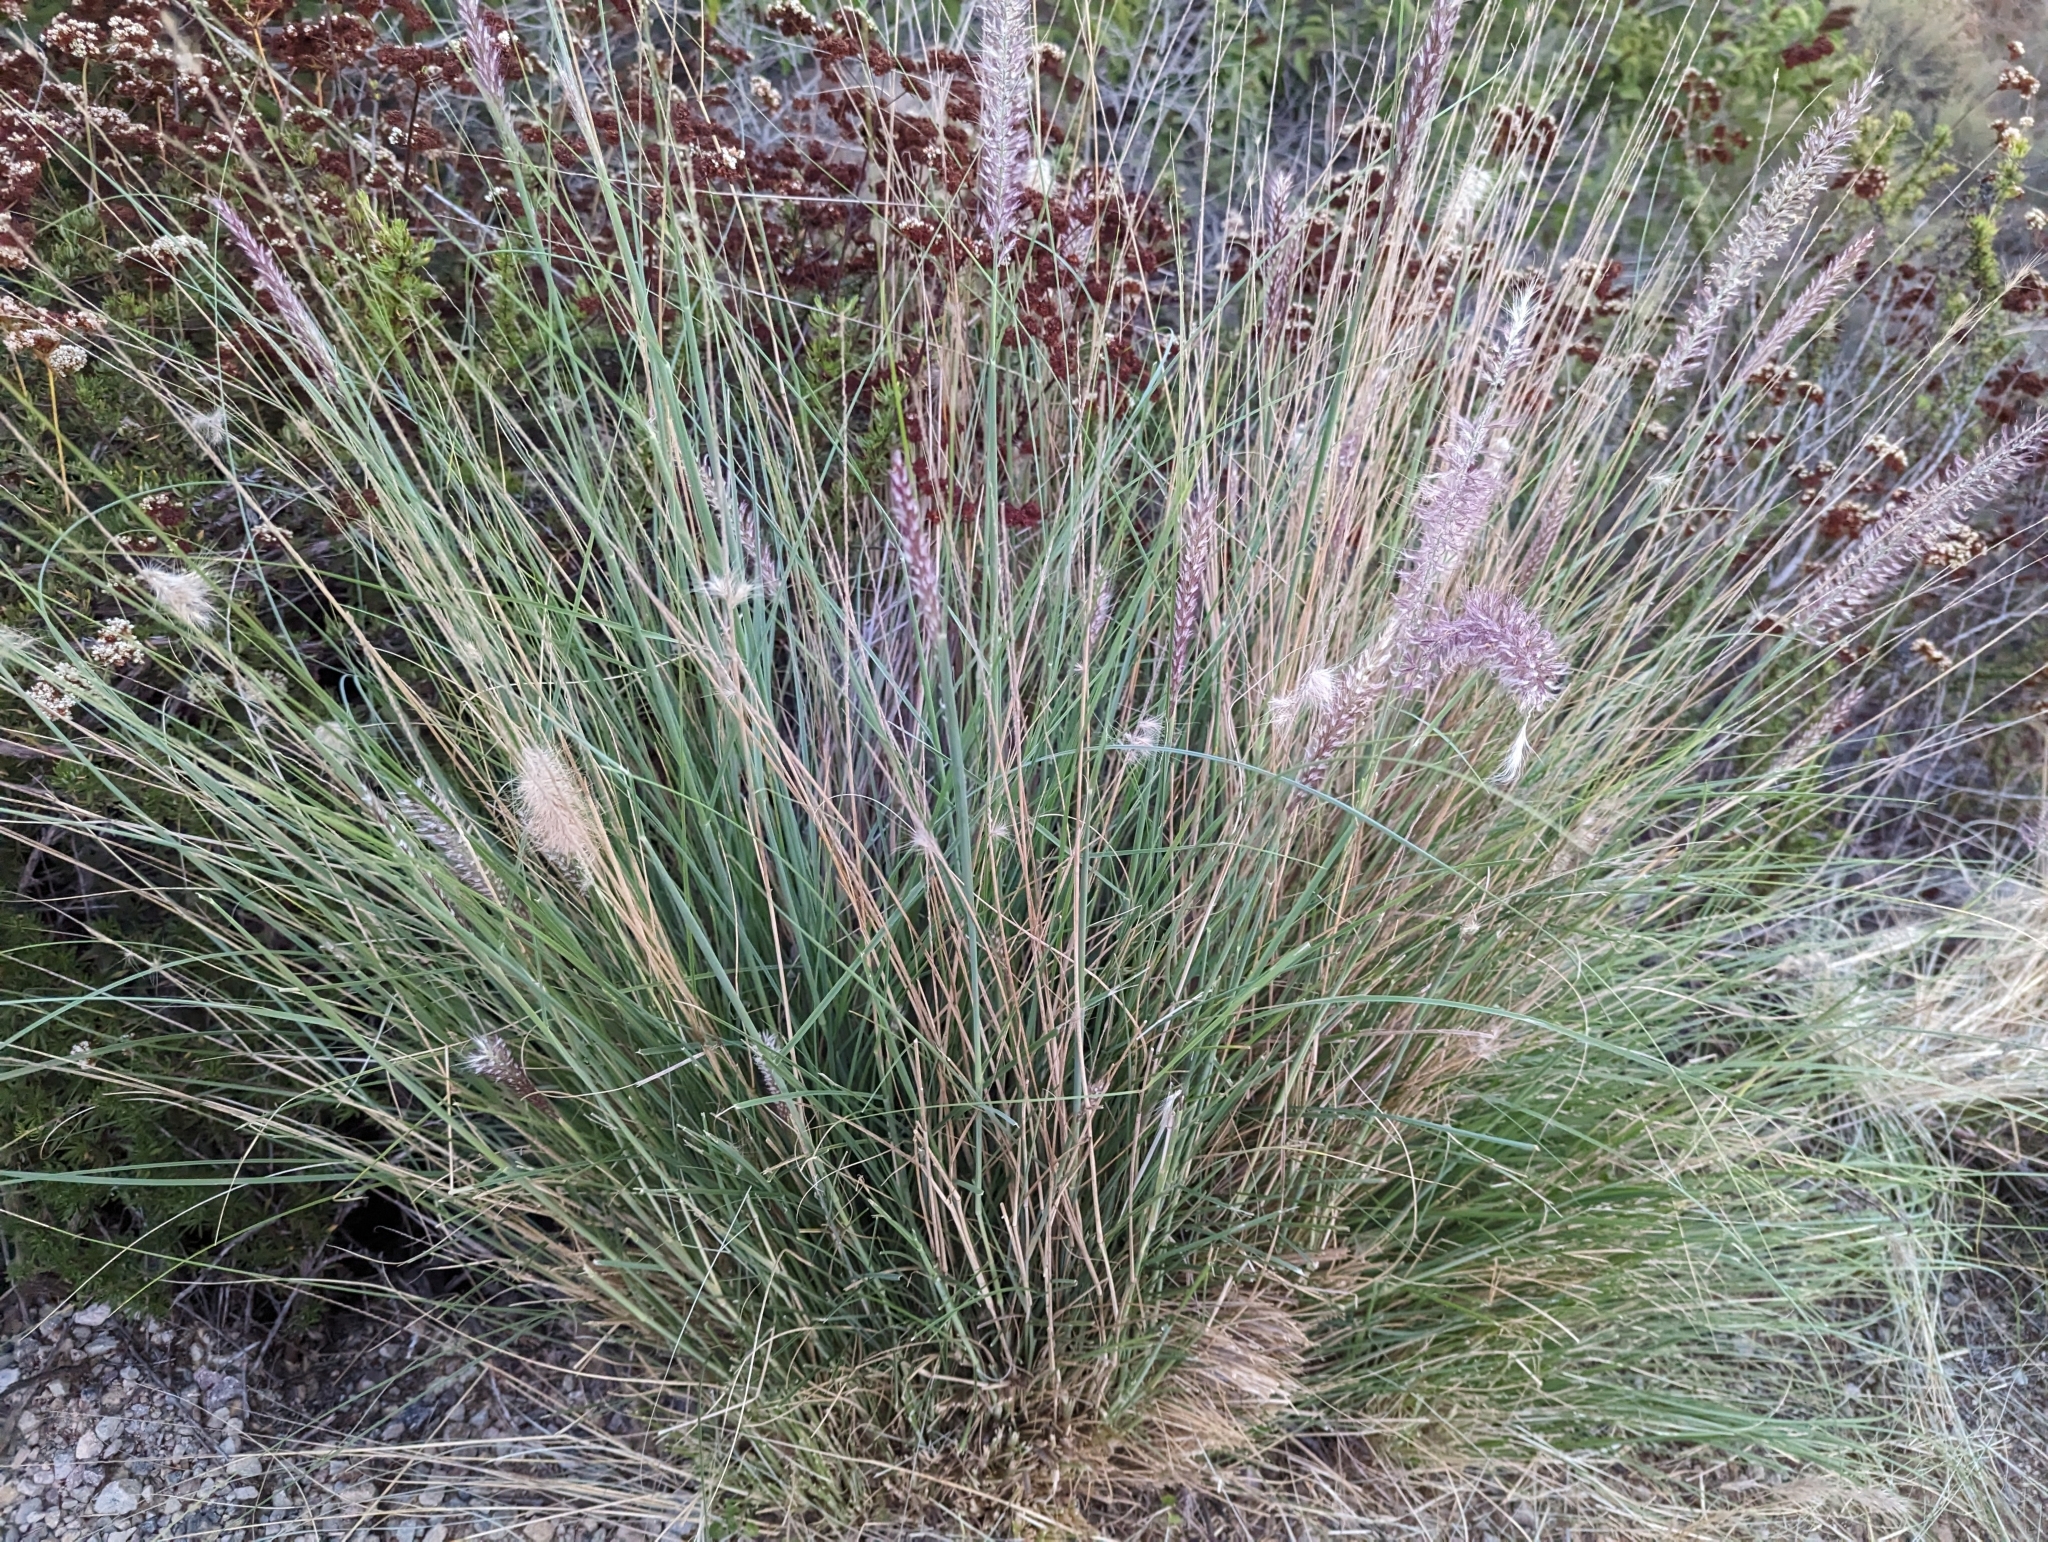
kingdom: Plantae
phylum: Tracheophyta
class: Liliopsida
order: Poales
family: Poaceae
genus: Cenchrus
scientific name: Cenchrus setaceus
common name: Crimson fountaingrass
